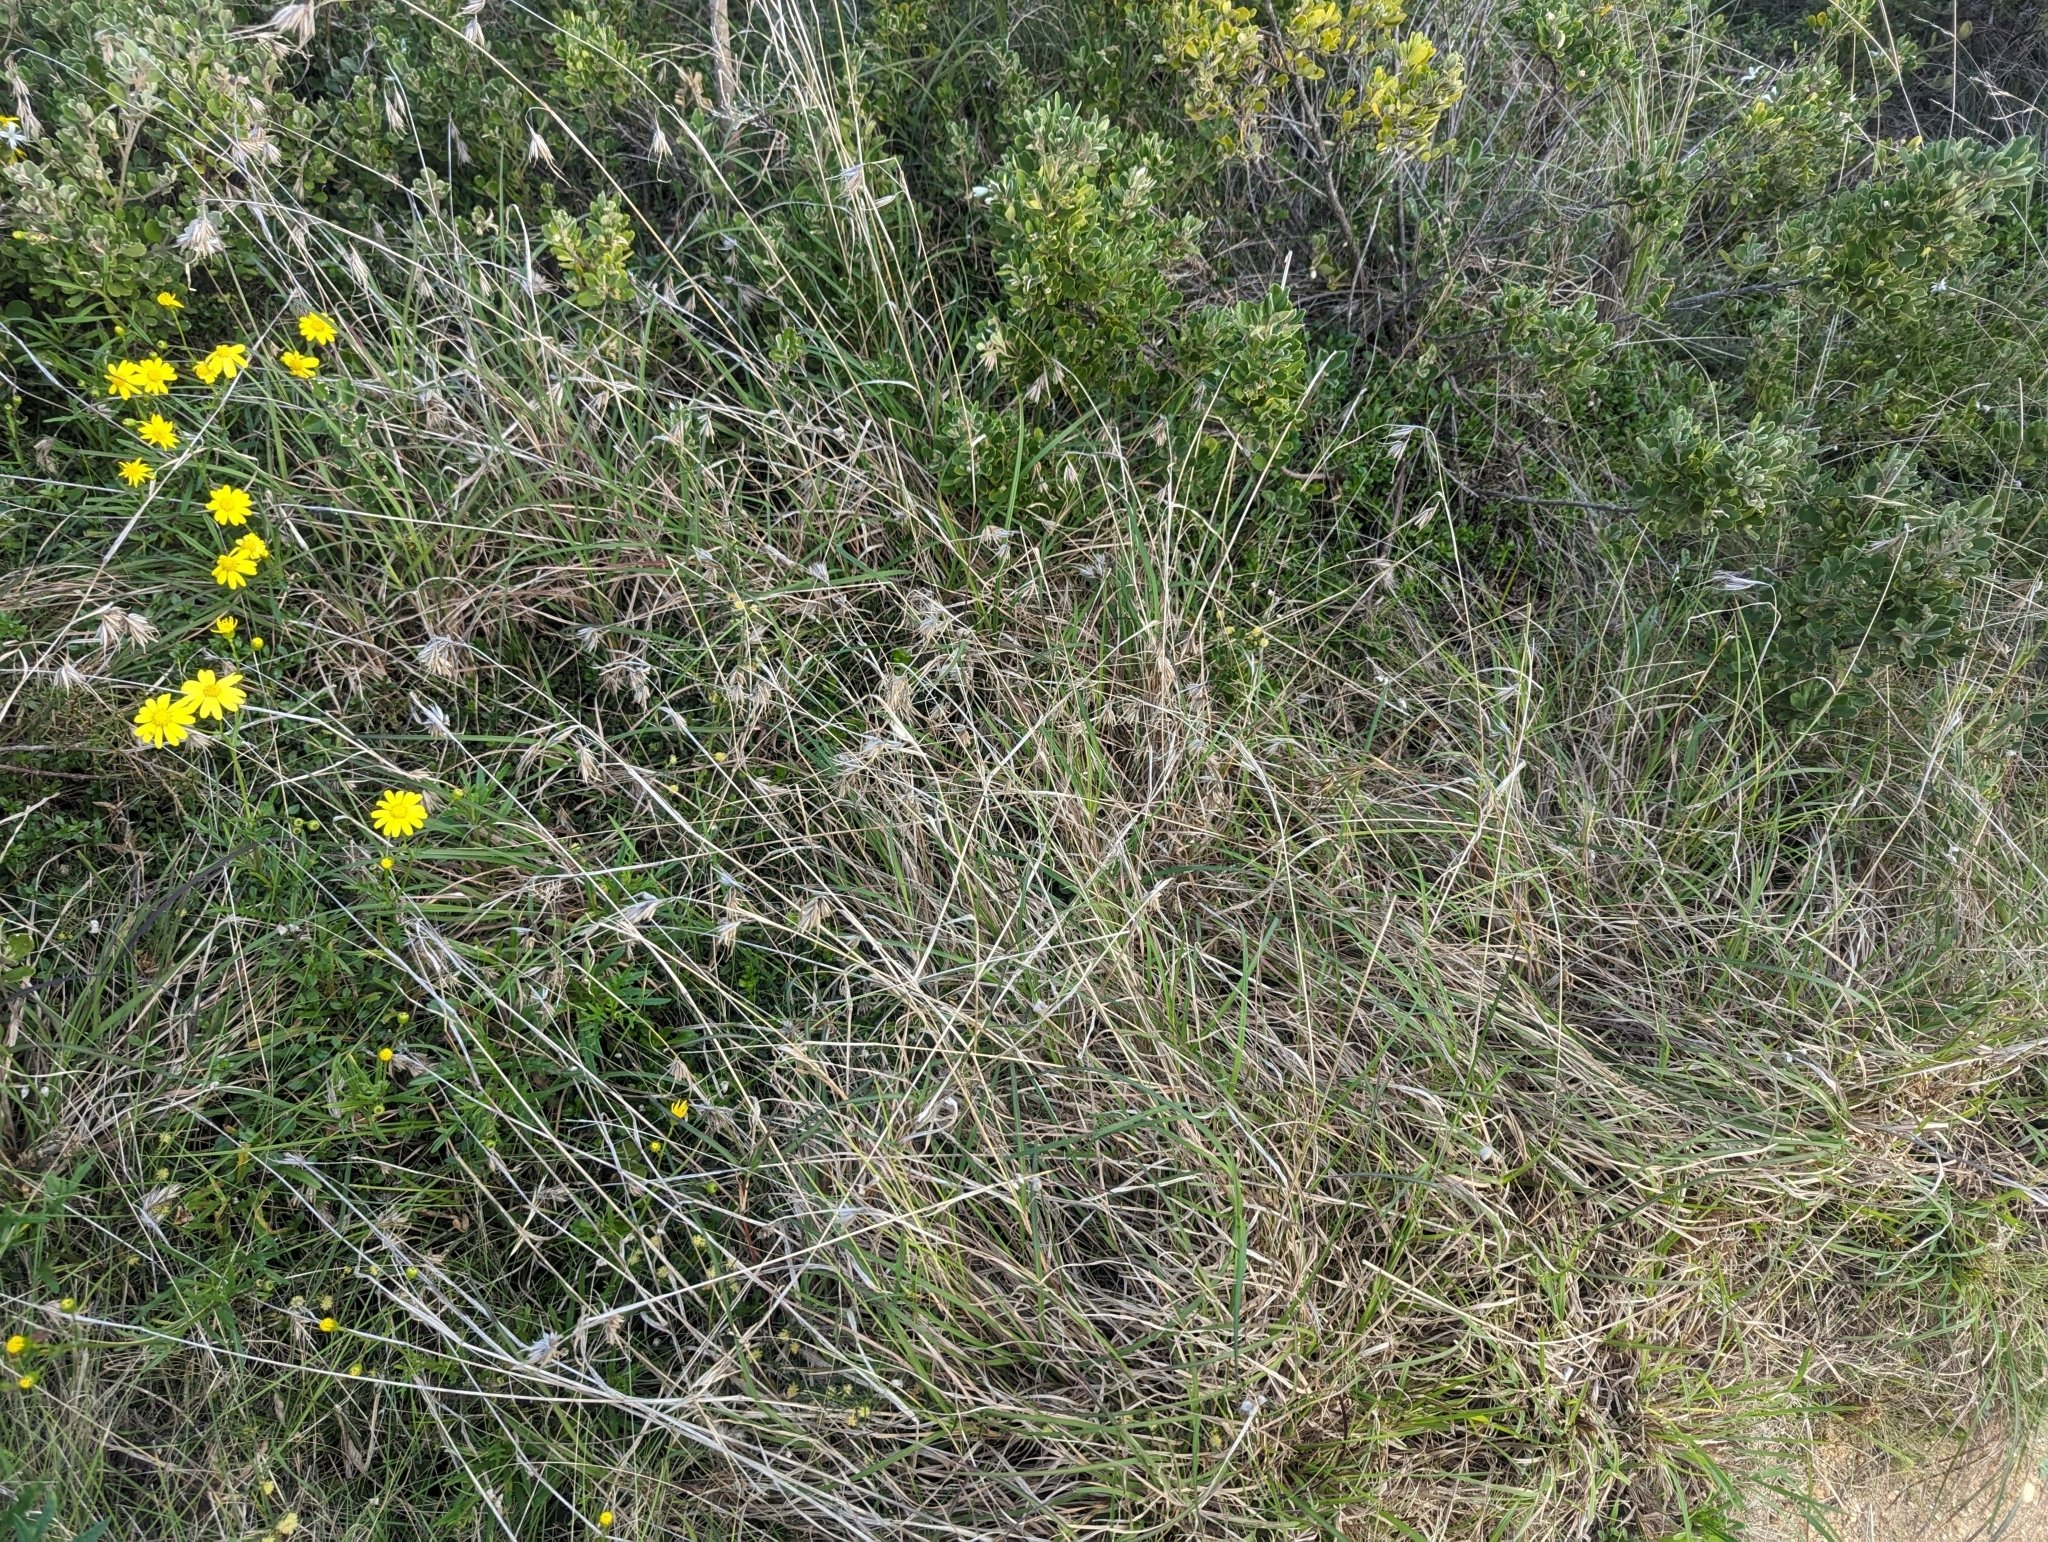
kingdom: Plantae
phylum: Tracheophyta
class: Liliopsida
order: Poales
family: Poaceae
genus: Themeda
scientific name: Themeda triandra
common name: Kangaroo grass
